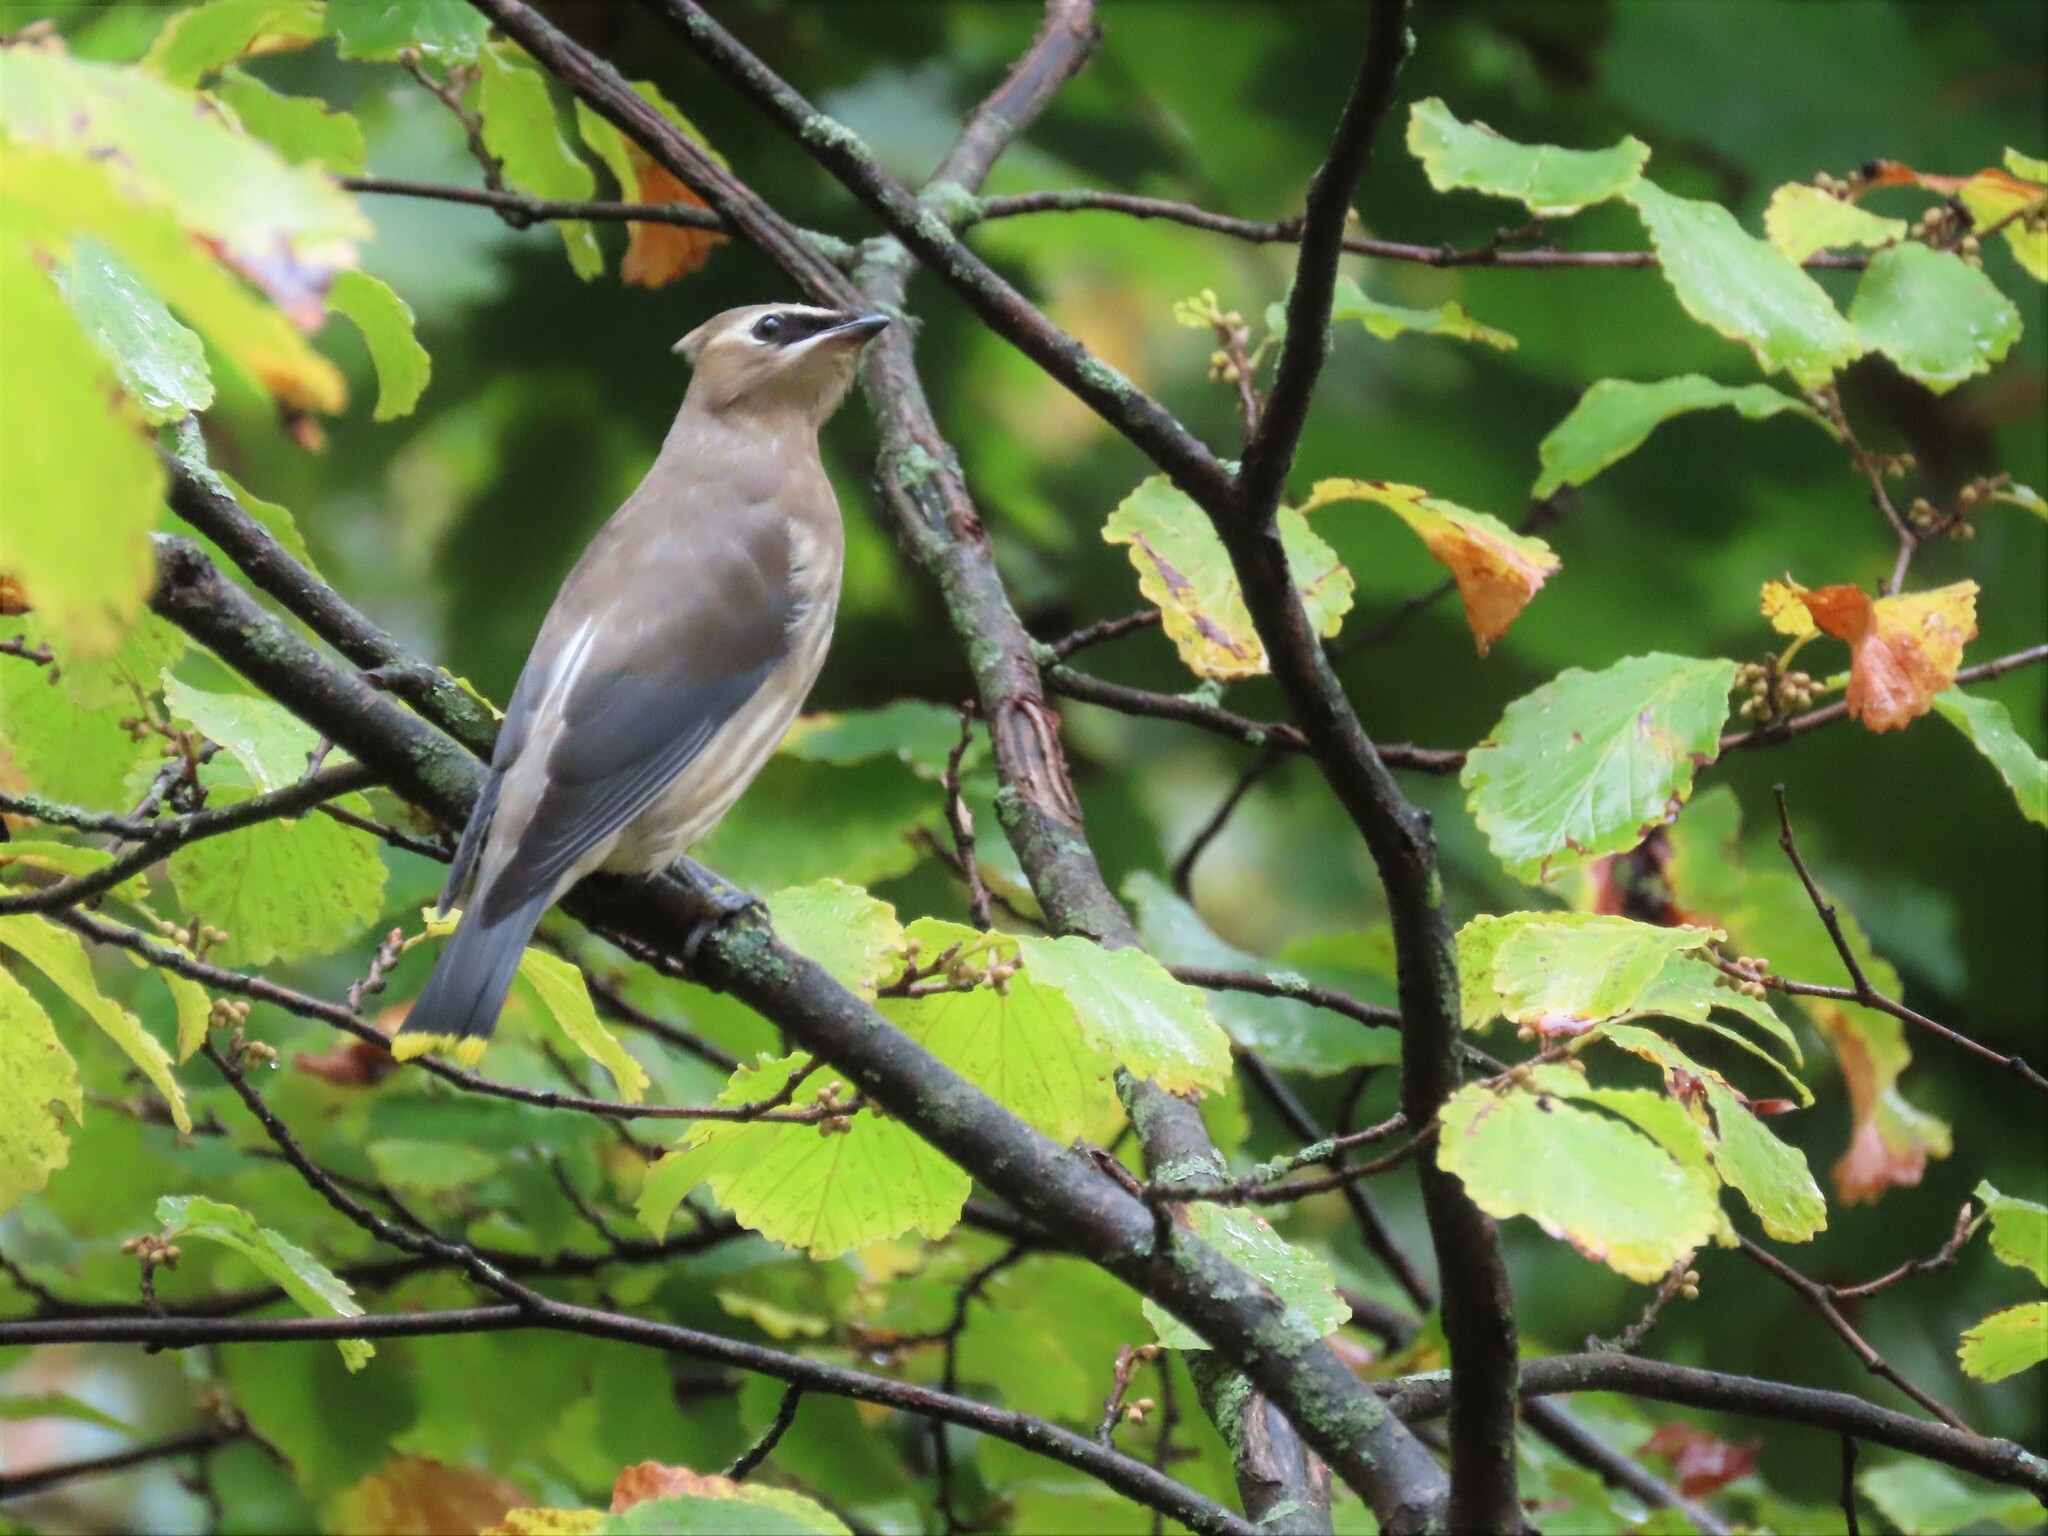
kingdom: Animalia
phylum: Chordata
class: Aves
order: Passeriformes
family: Bombycillidae
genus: Bombycilla
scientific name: Bombycilla cedrorum
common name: Cedar waxwing
